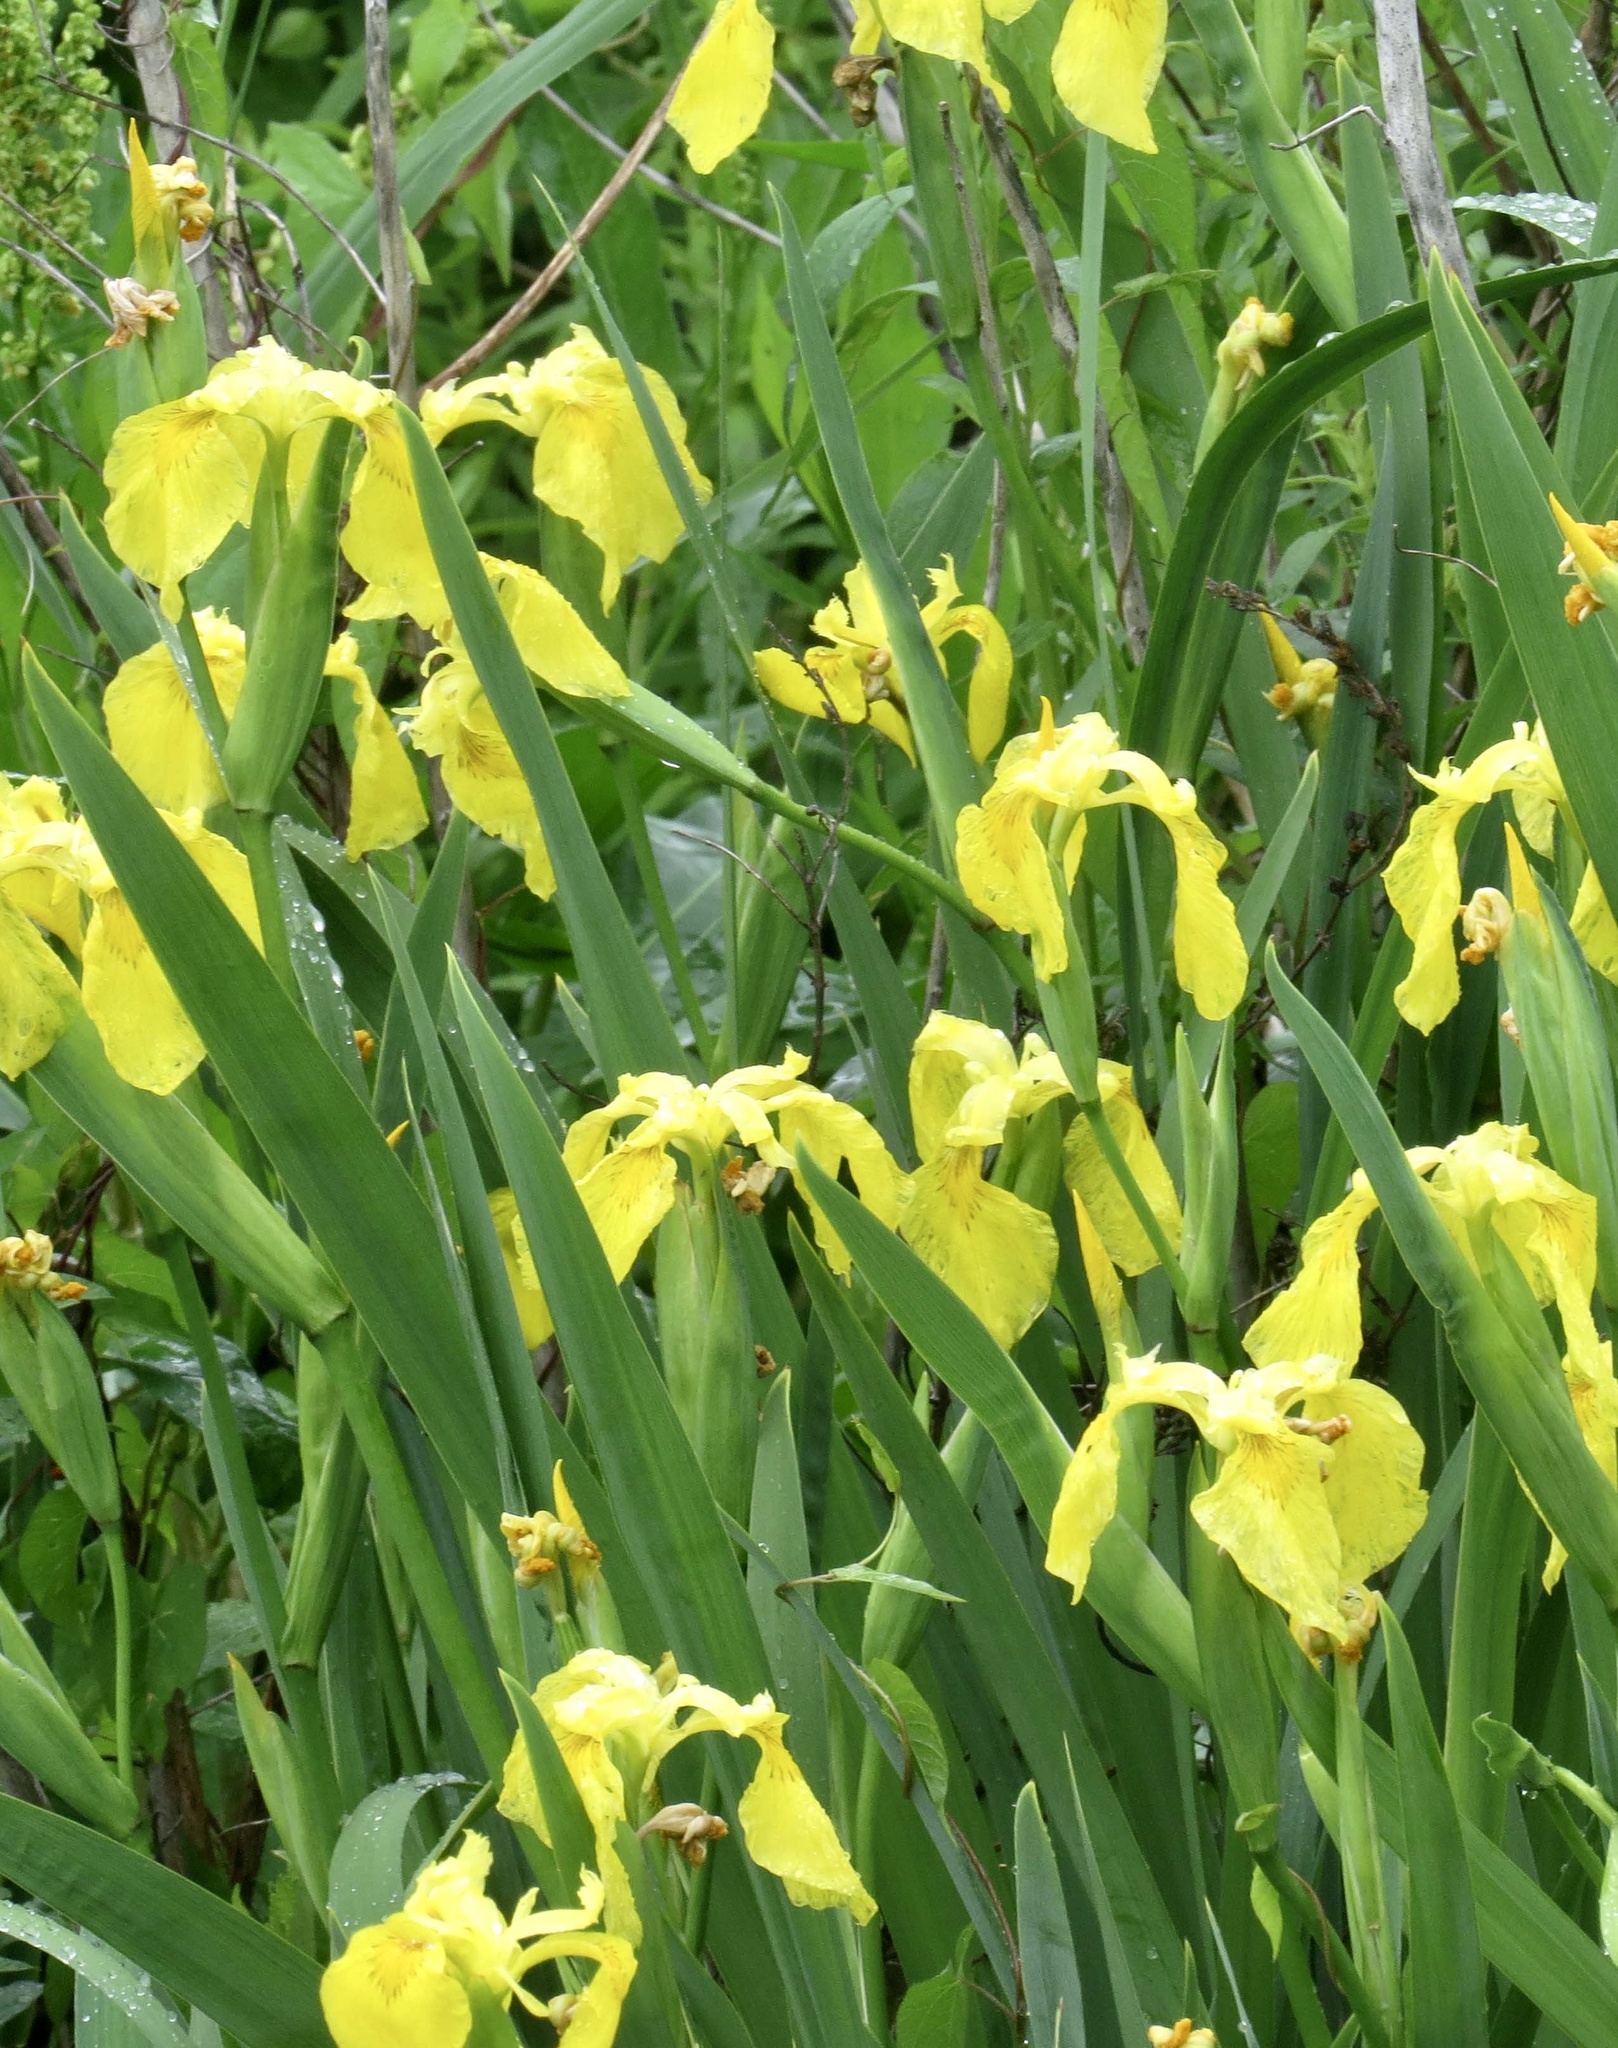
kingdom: Plantae
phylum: Tracheophyta
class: Liliopsida
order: Asparagales
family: Iridaceae
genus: Iris
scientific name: Iris pseudacorus
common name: Yellow flag
